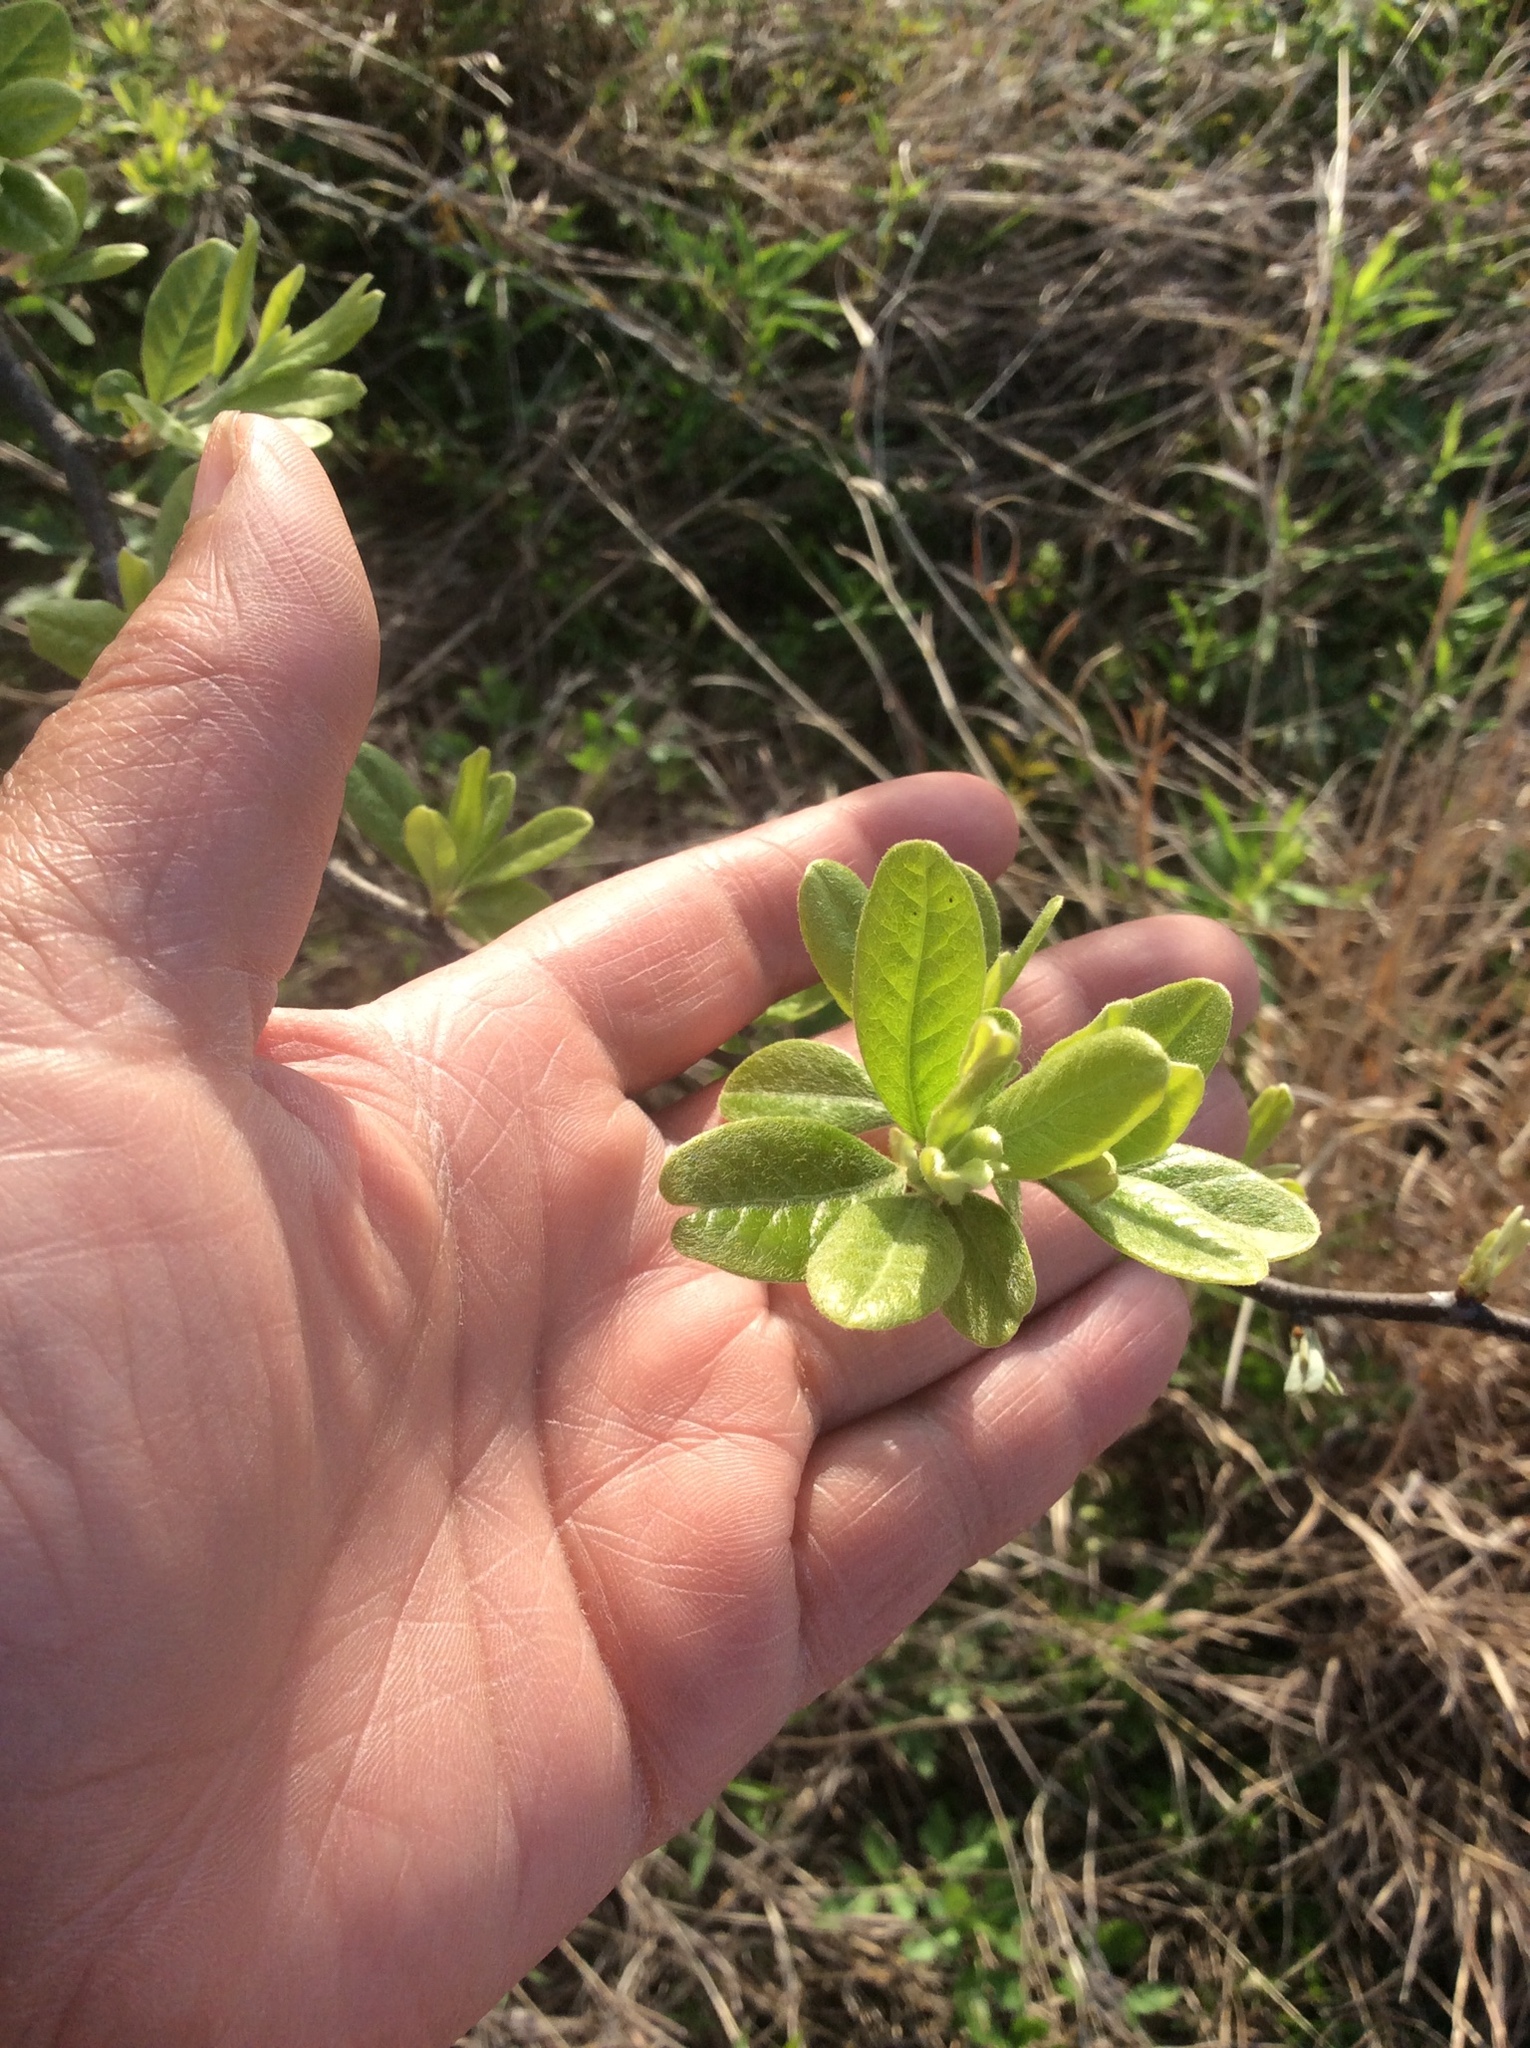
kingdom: Plantae
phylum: Tracheophyta
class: Magnoliopsida
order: Ericales
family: Sapotaceae
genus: Sideroxylon
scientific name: Sideroxylon lanuginosum
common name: Chittamwood
